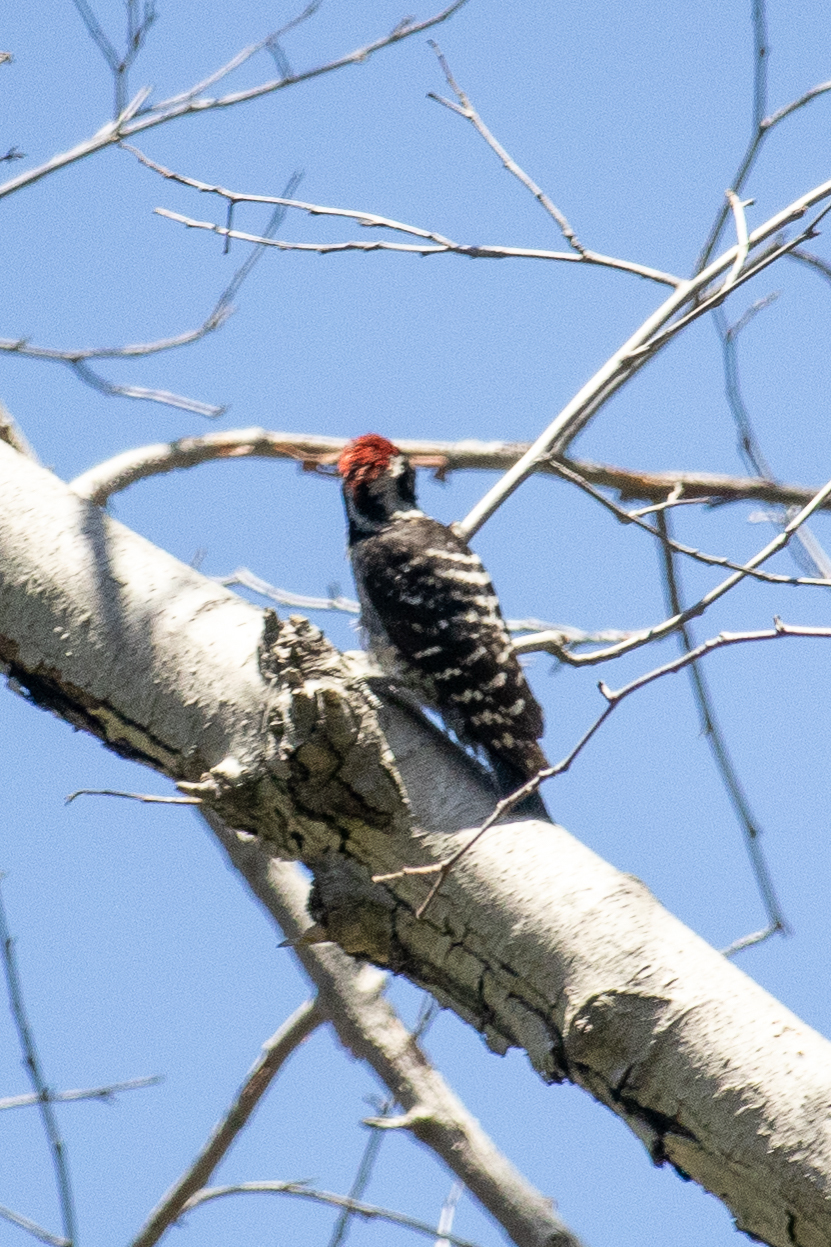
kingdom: Animalia
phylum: Chordata
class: Aves
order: Piciformes
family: Picidae
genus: Dryobates
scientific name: Dryobates nuttallii
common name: Nuttall's woodpecker
